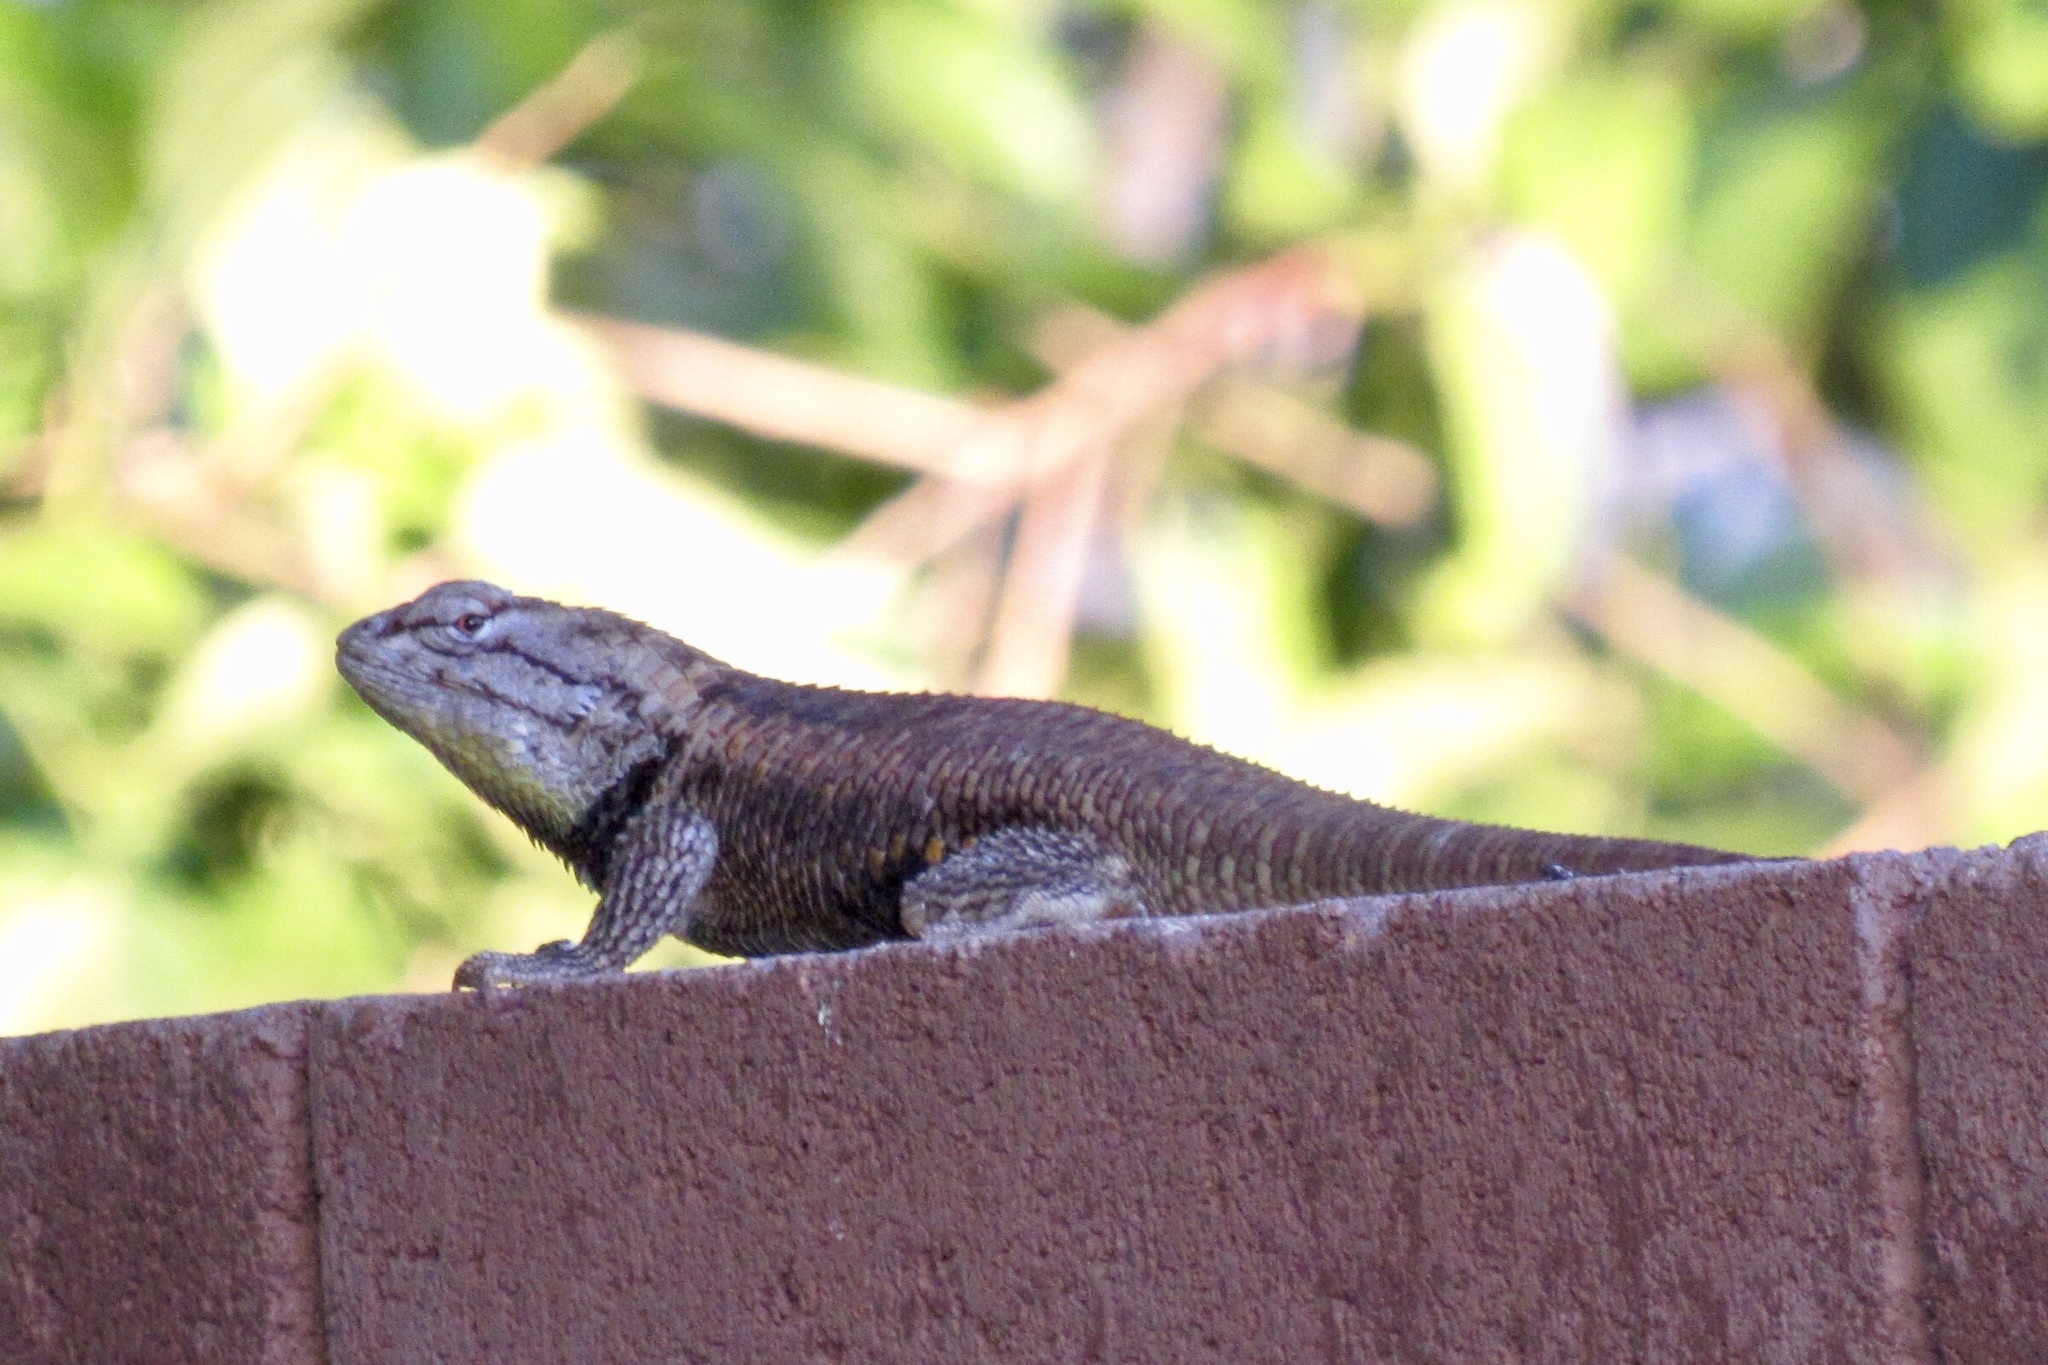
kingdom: Animalia
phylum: Chordata
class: Squamata
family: Phrynosomatidae
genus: Sceloporus
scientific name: Sceloporus magister
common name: Desert spiny lizard
